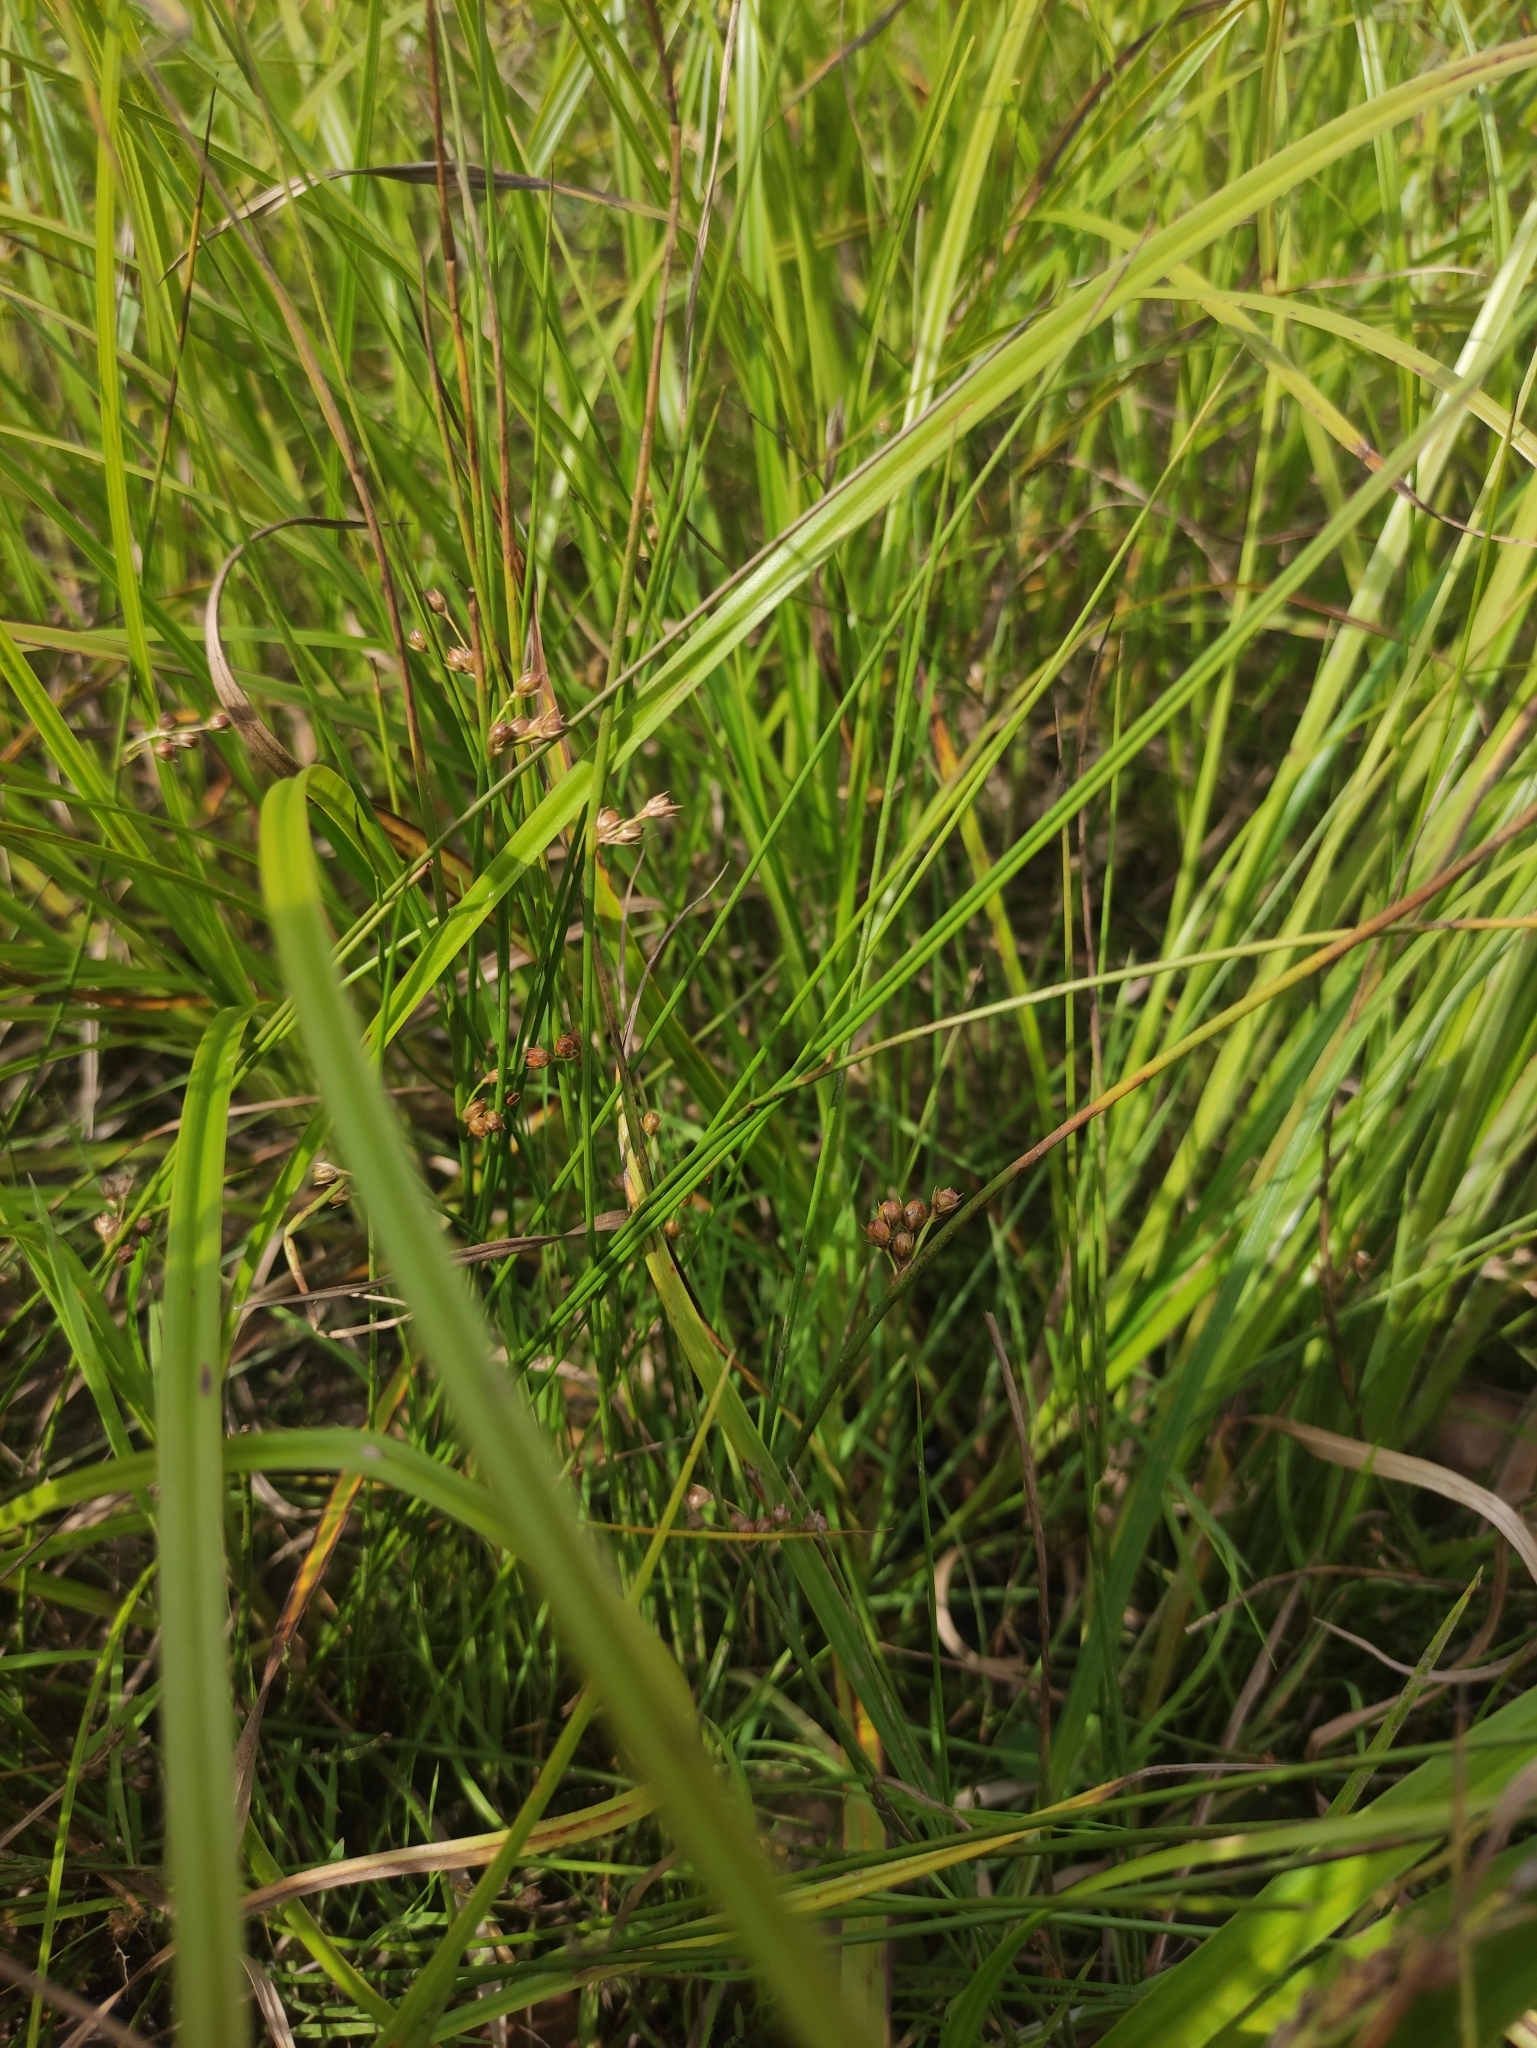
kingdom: Plantae
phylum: Tracheophyta
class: Liliopsida
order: Poales
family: Juncaceae
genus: Juncus
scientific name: Juncus filiformis
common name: Thread rush
